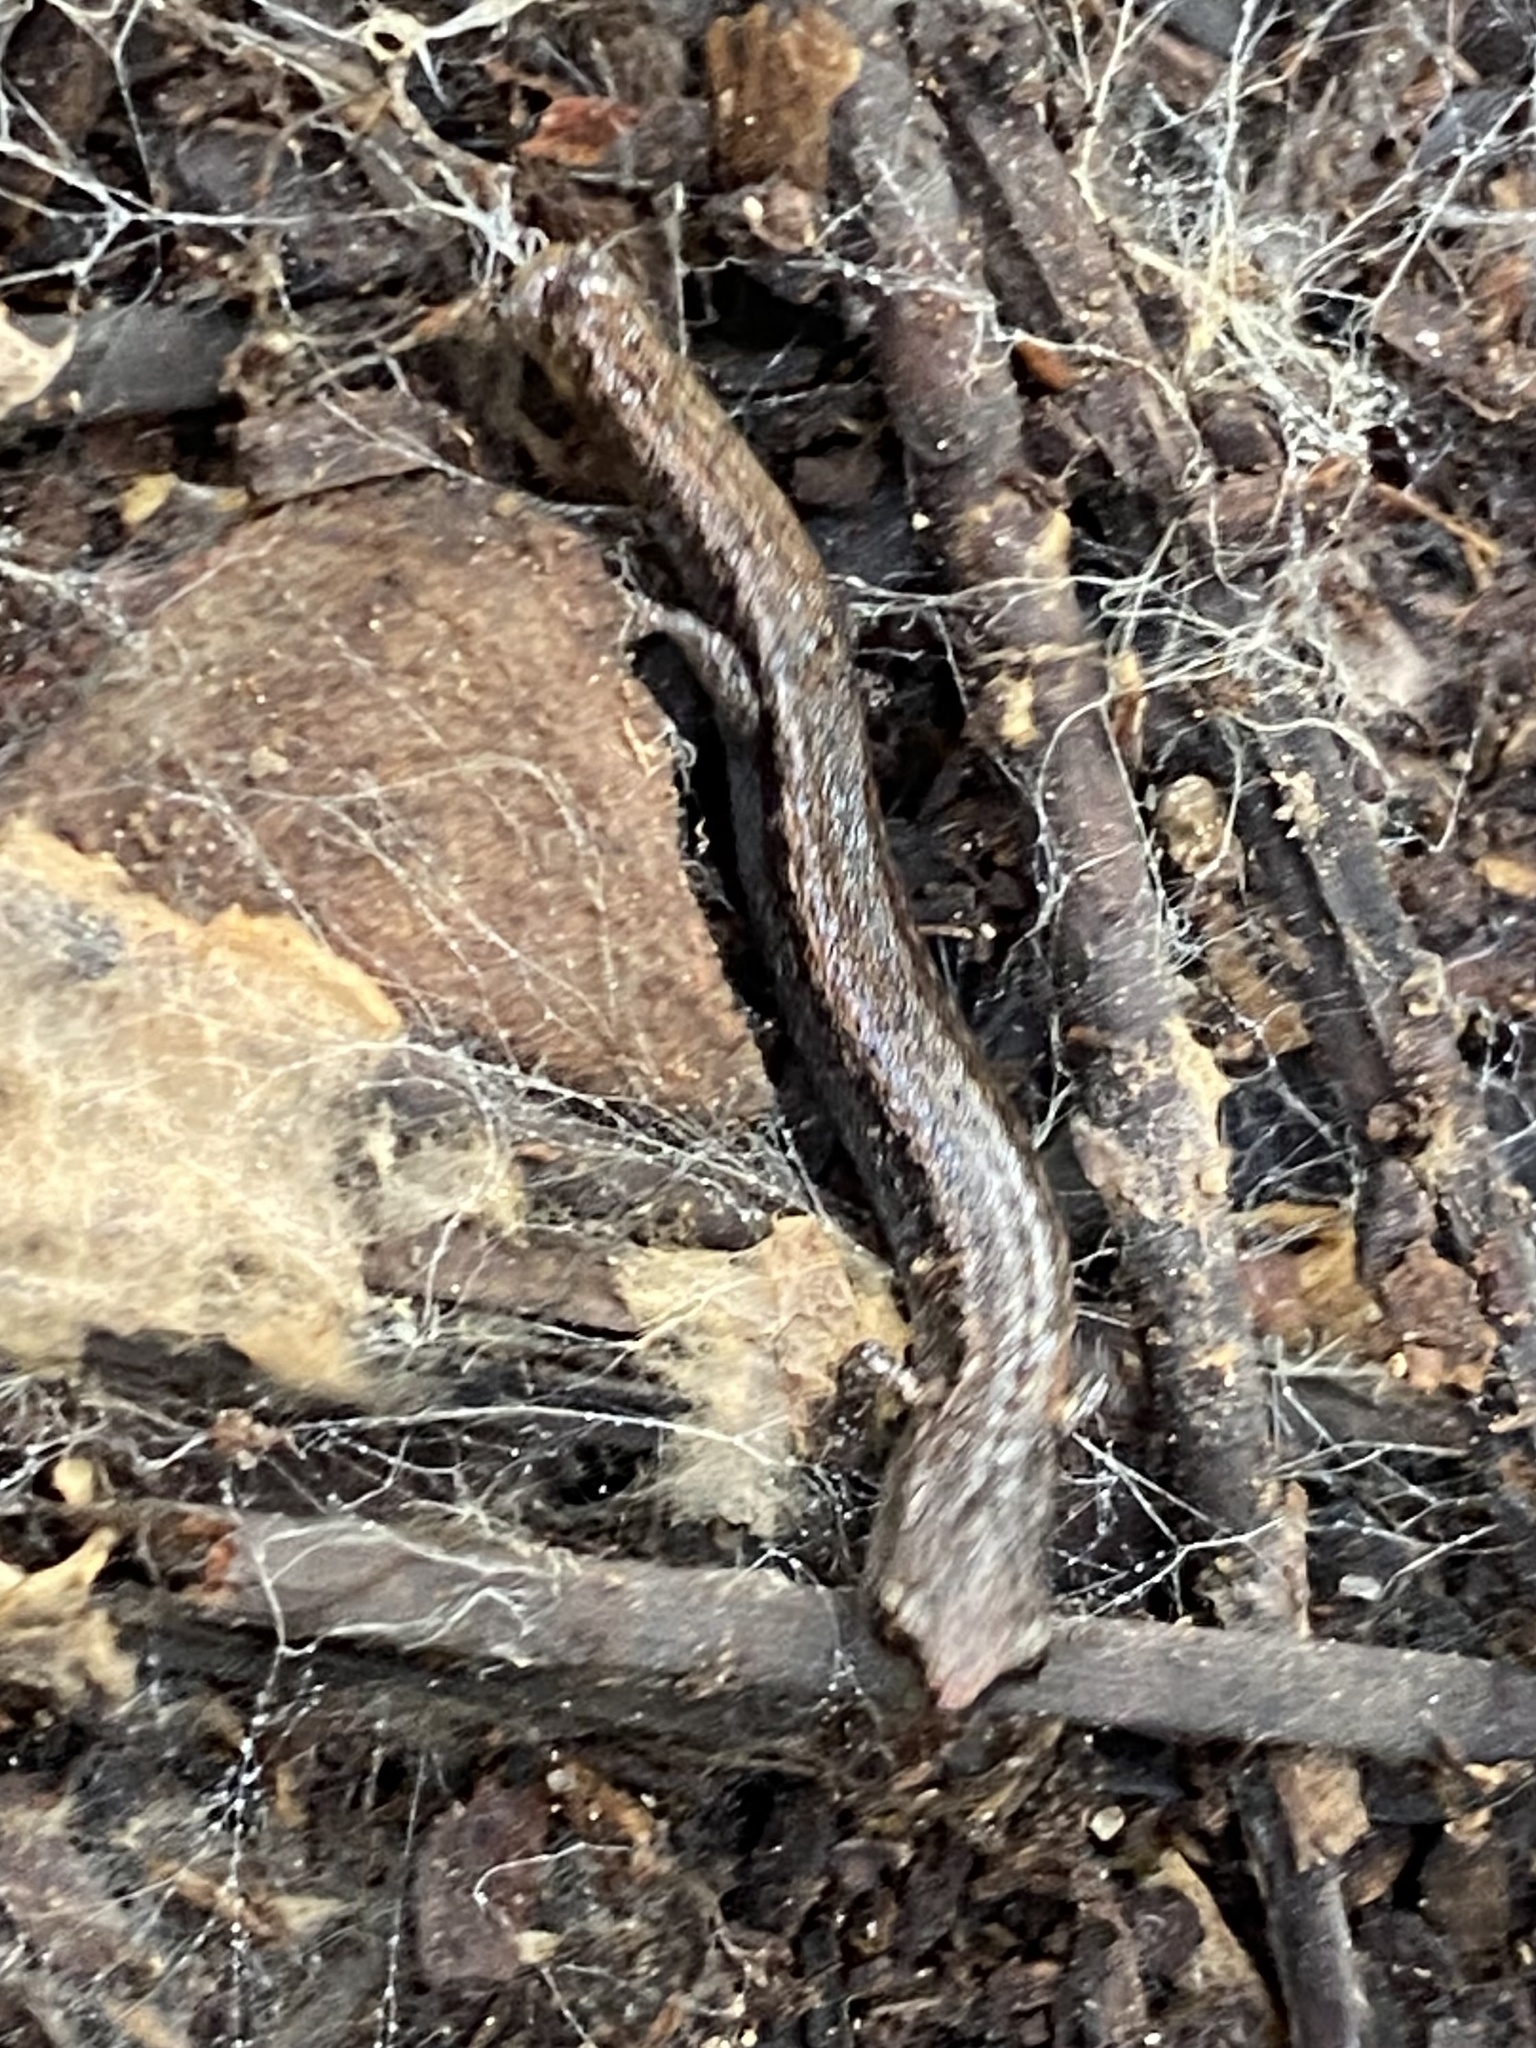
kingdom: Animalia
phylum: Chordata
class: Amphibia
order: Caudata
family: Plethodontidae
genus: Batrachoseps
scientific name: Batrachoseps major
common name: Garden slender salamander
